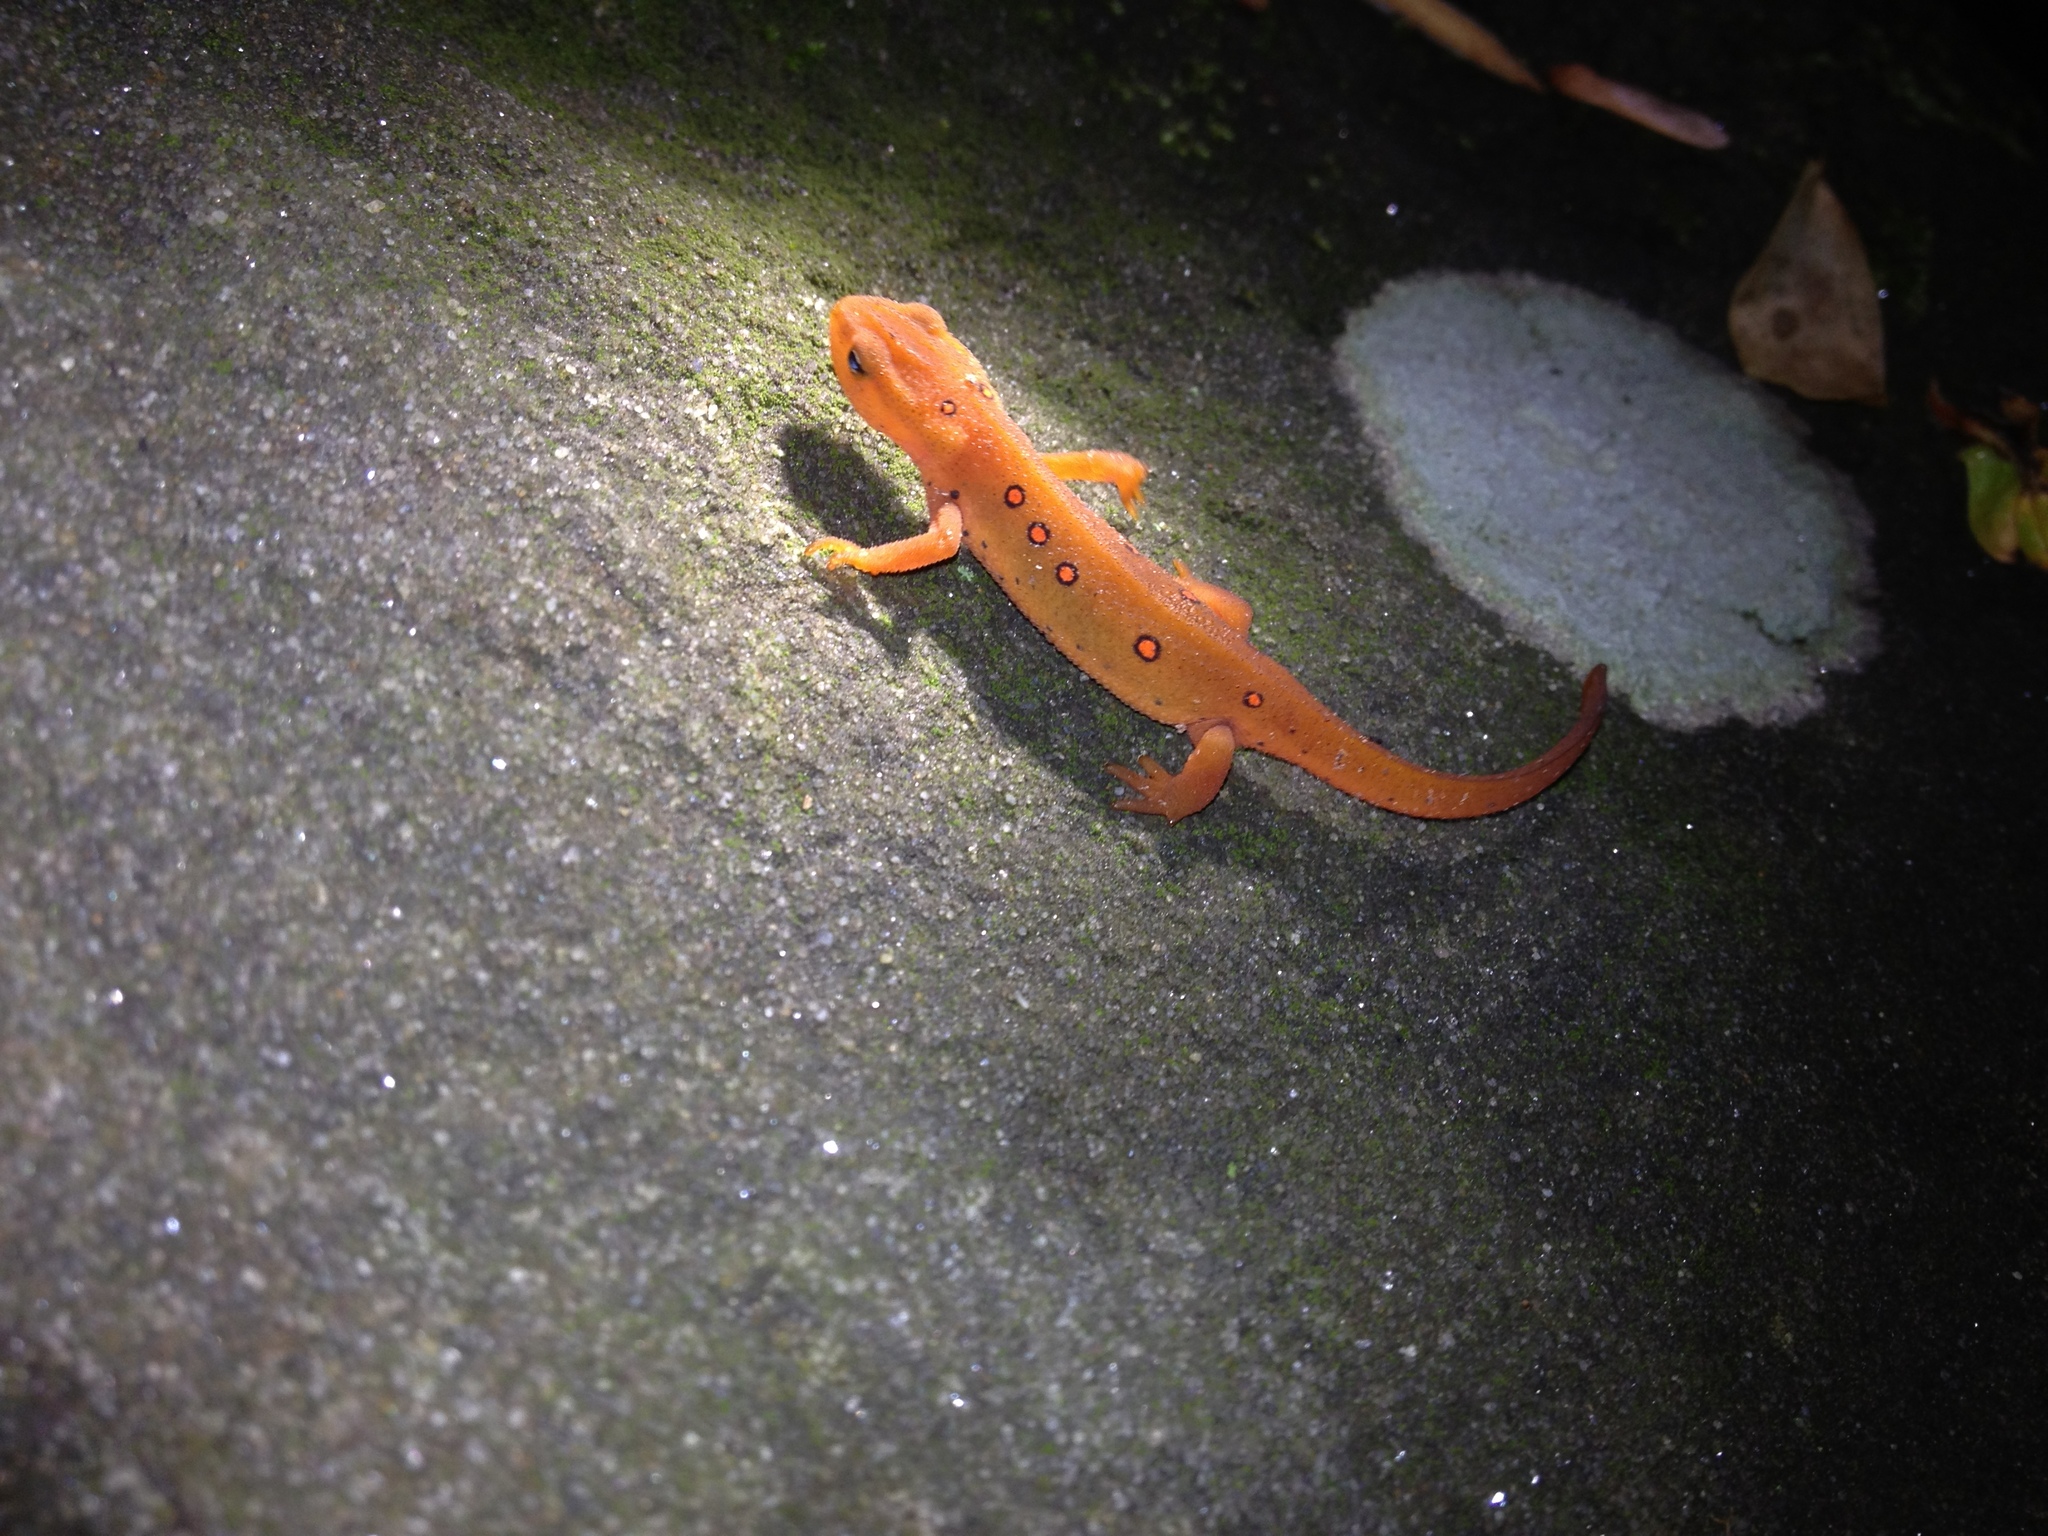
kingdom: Animalia
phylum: Chordata
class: Amphibia
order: Caudata
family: Salamandridae
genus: Notophthalmus
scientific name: Notophthalmus viridescens
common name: Eastern newt
